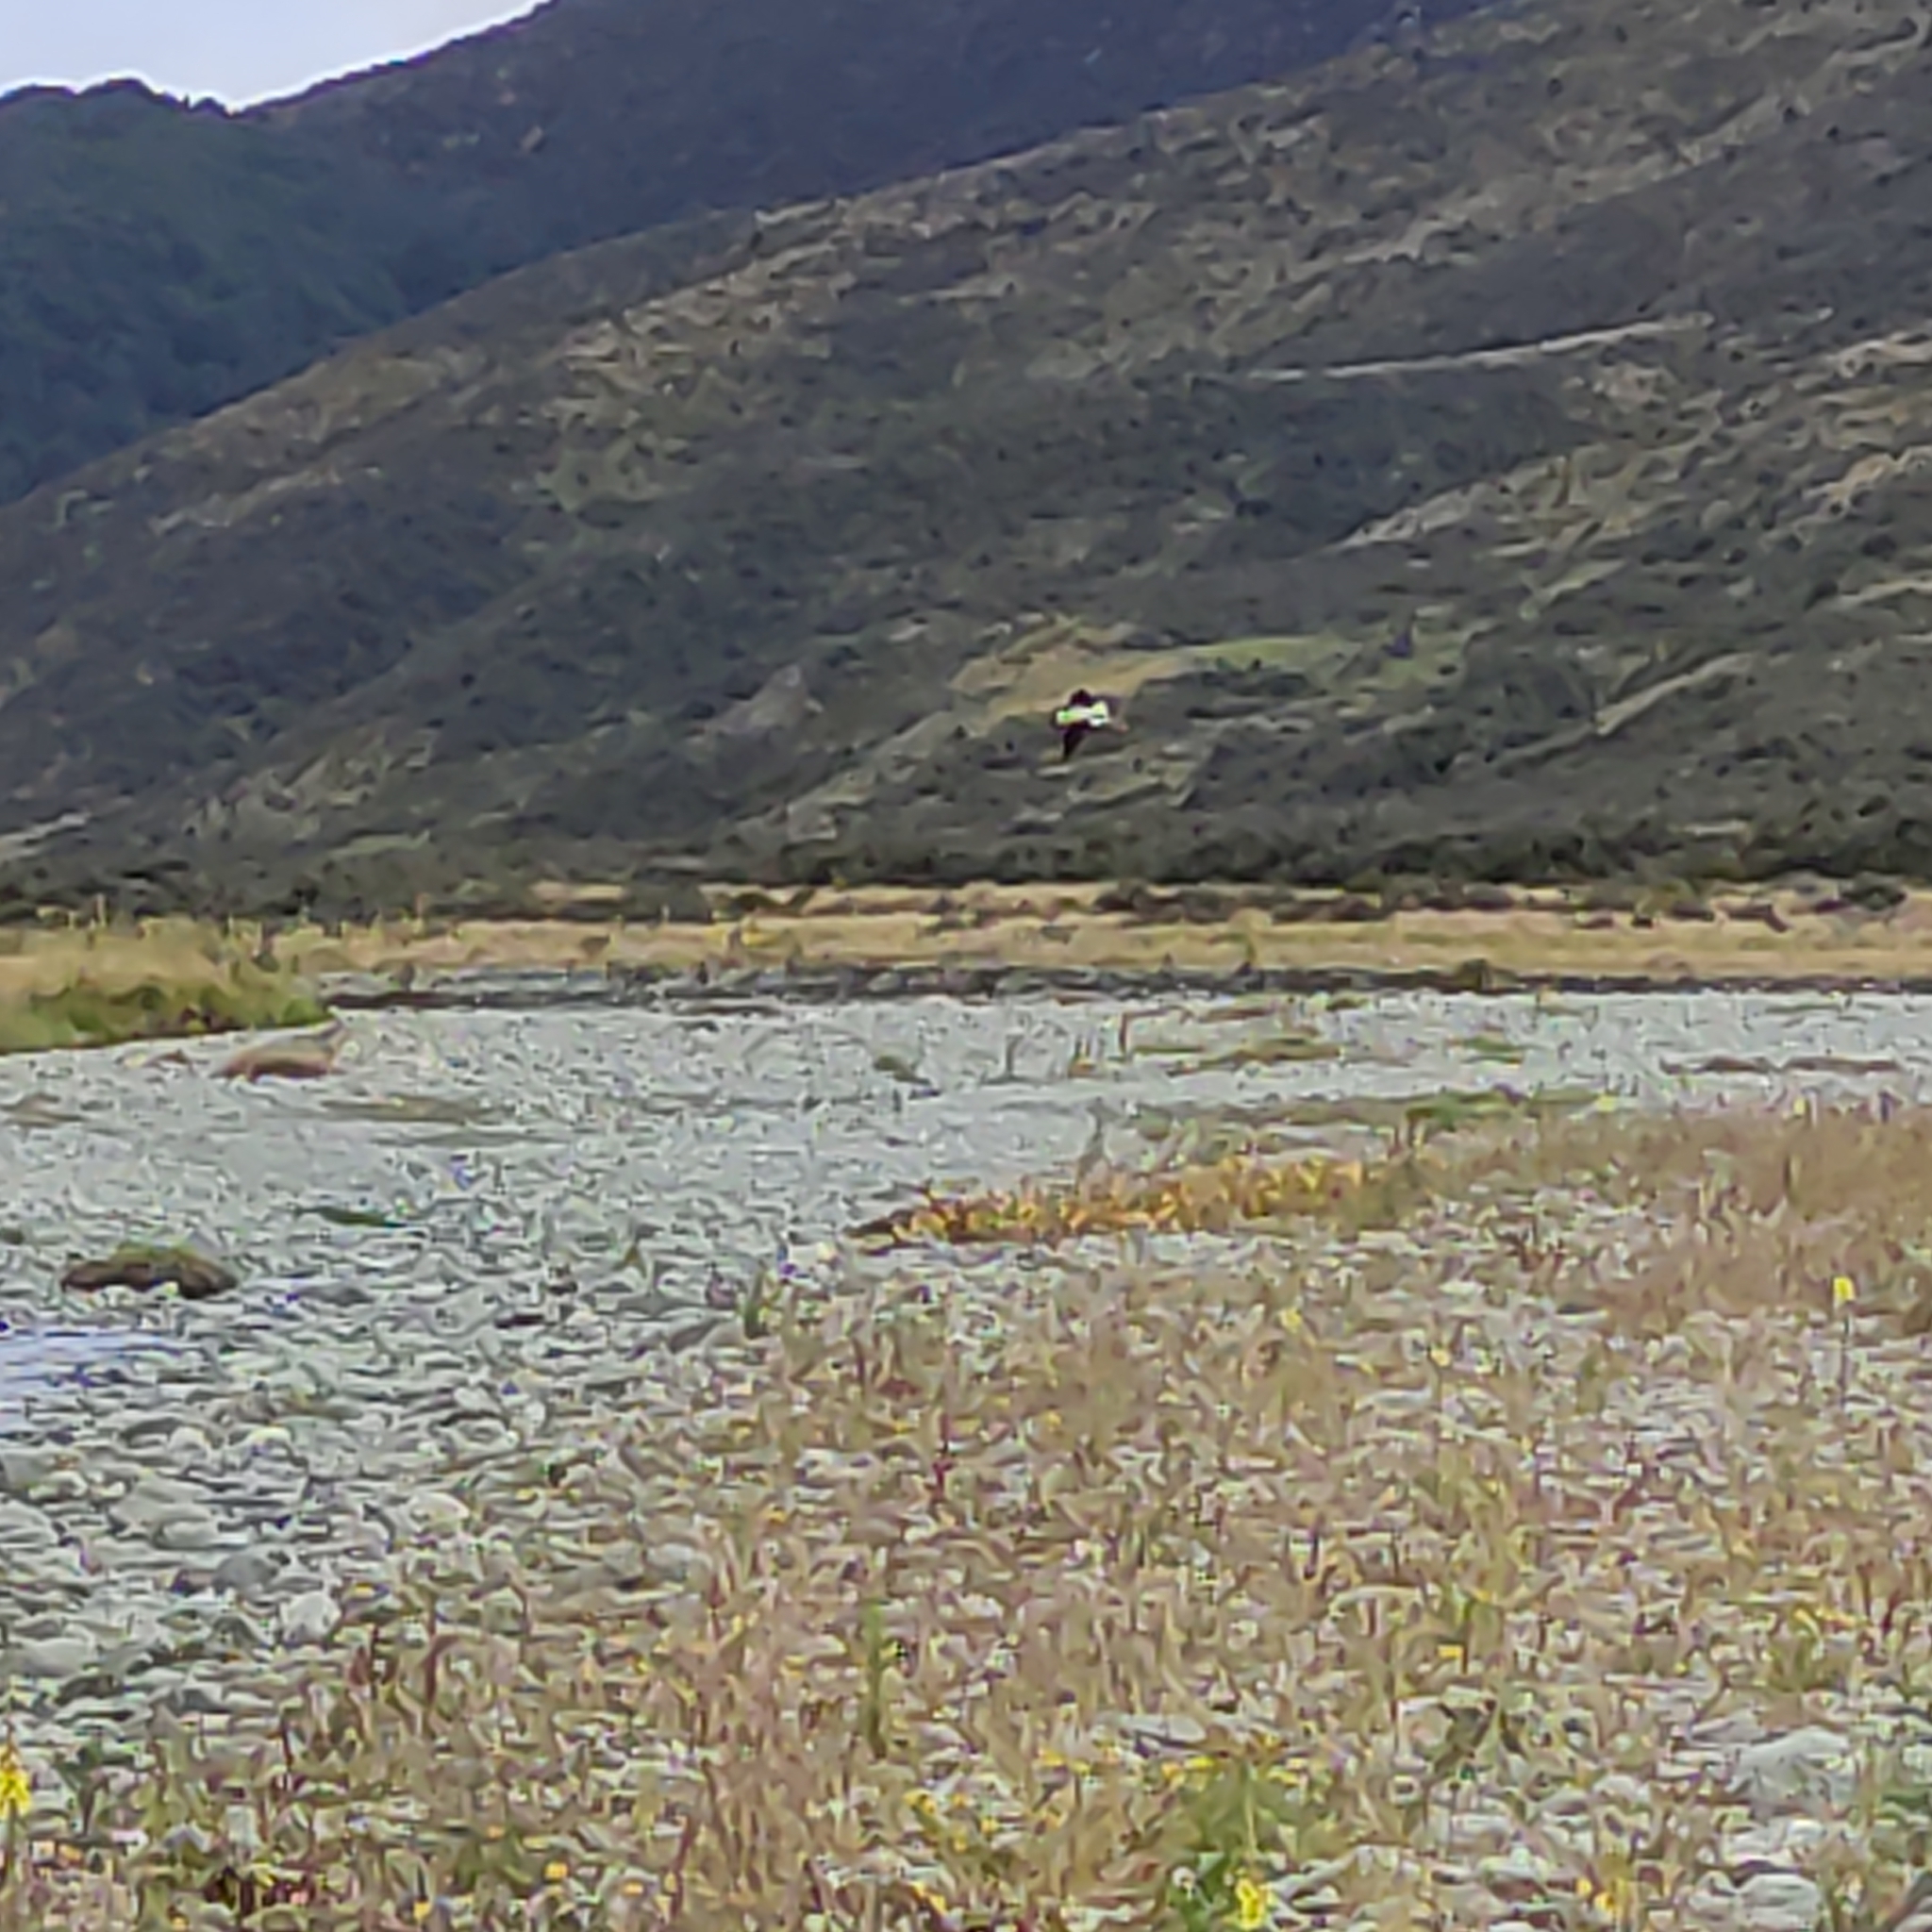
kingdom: Animalia
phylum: Chordata
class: Aves
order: Charadriiformes
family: Recurvirostridae
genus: Himantopus
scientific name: Himantopus leucocephalus
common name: White-headed stilt
